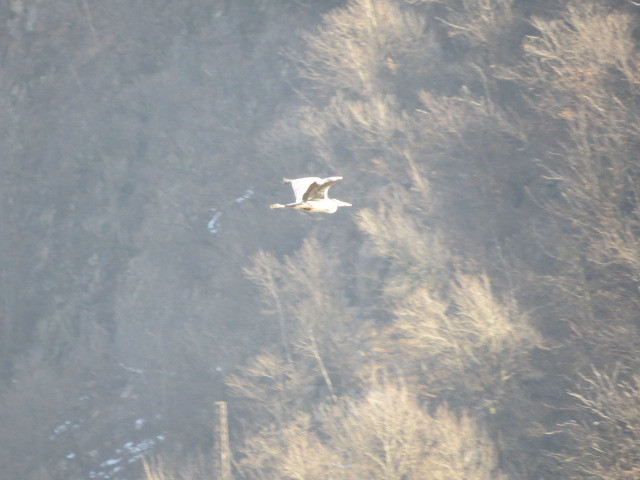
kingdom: Animalia
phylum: Chordata
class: Aves
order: Pelecaniformes
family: Ardeidae
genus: Ardea
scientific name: Ardea cinerea
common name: Grey heron
